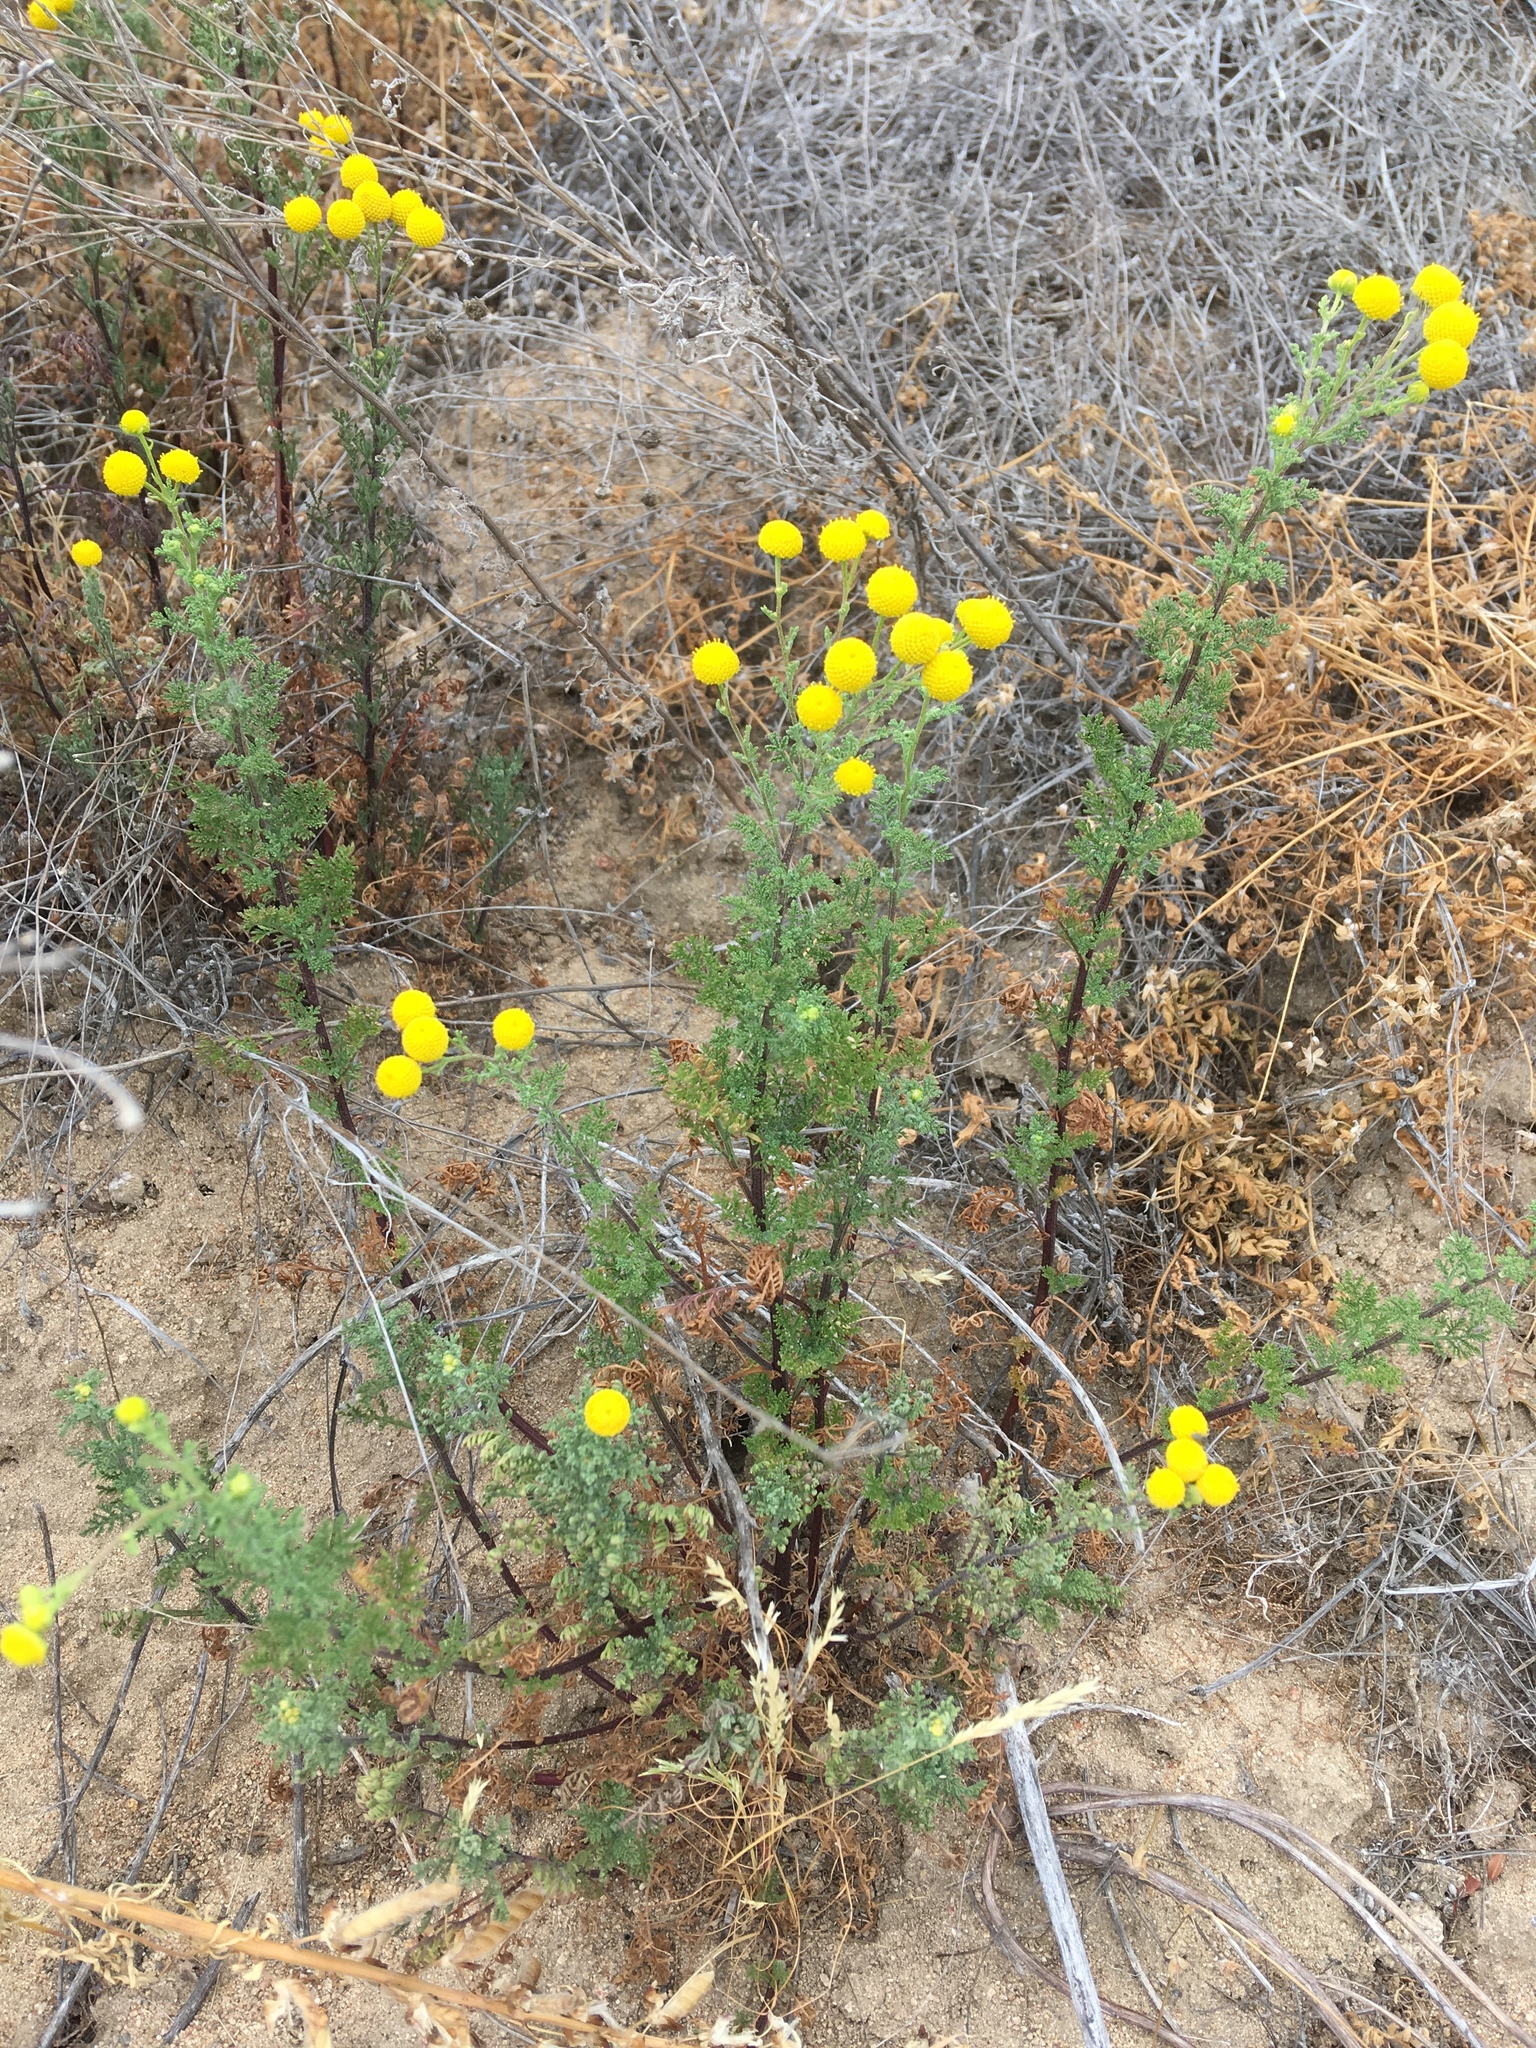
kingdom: Plantae
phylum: Tracheophyta
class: Magnoliopsida
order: Asterales
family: Asteraceae
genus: Oncosiphon
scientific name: Oncosiphon pilulifer
